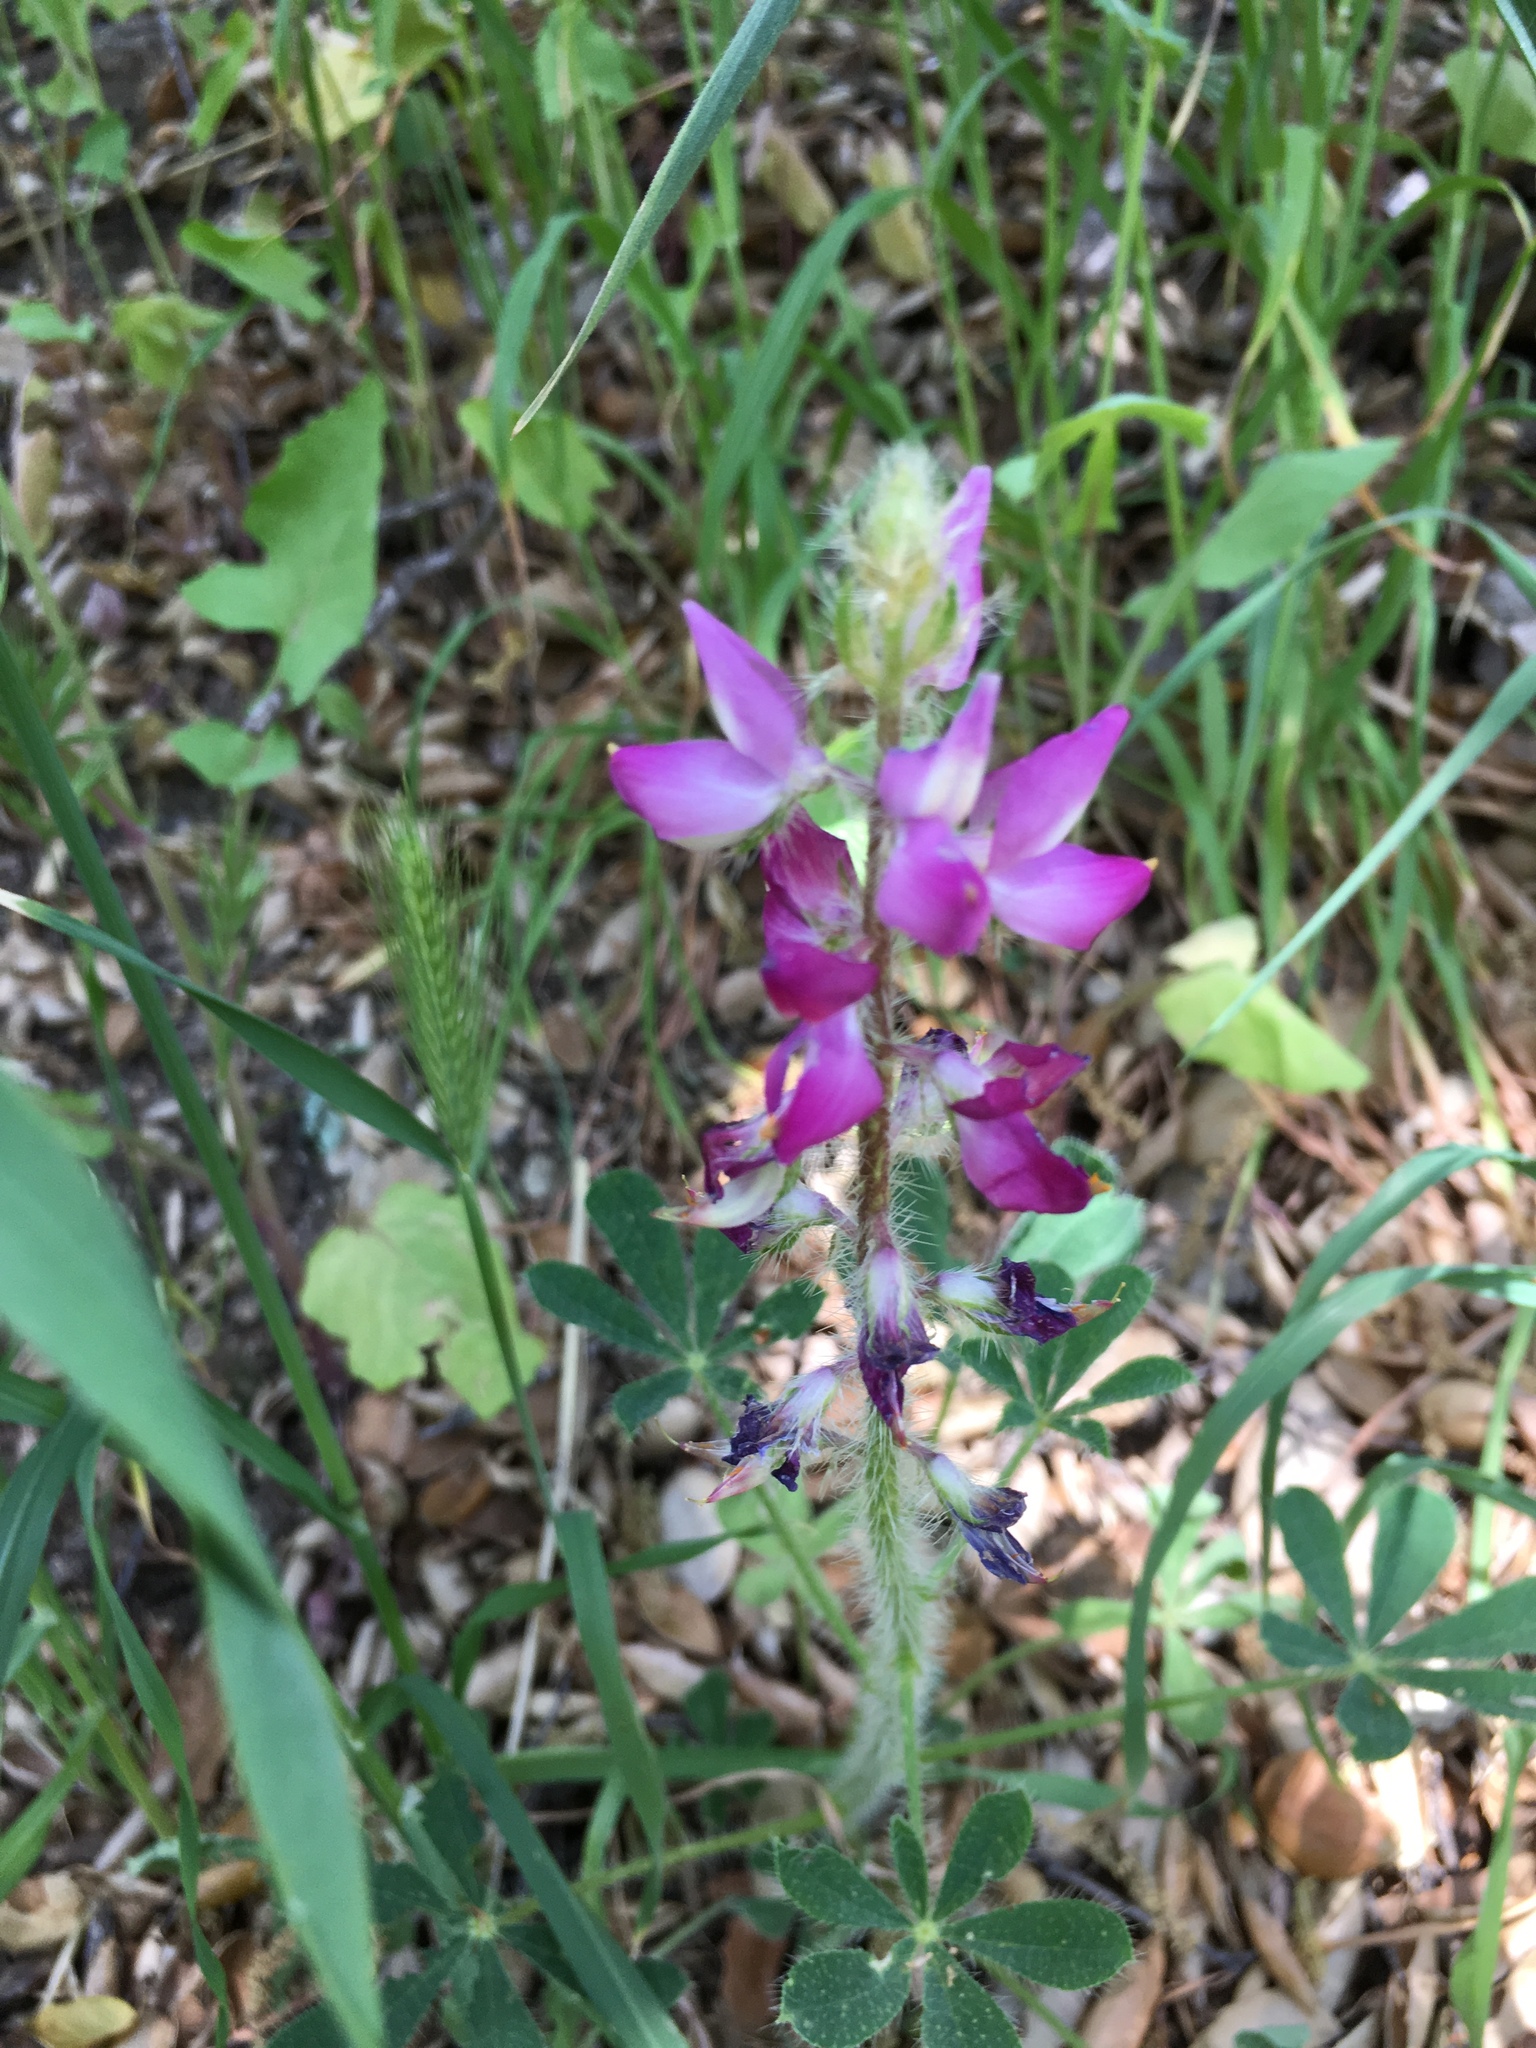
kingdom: Plantae
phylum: Tracheophyta
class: Magnoliopsida
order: Fabales
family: Fabaceae
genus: Lupinus
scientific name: Lupinus hirsutissimus
